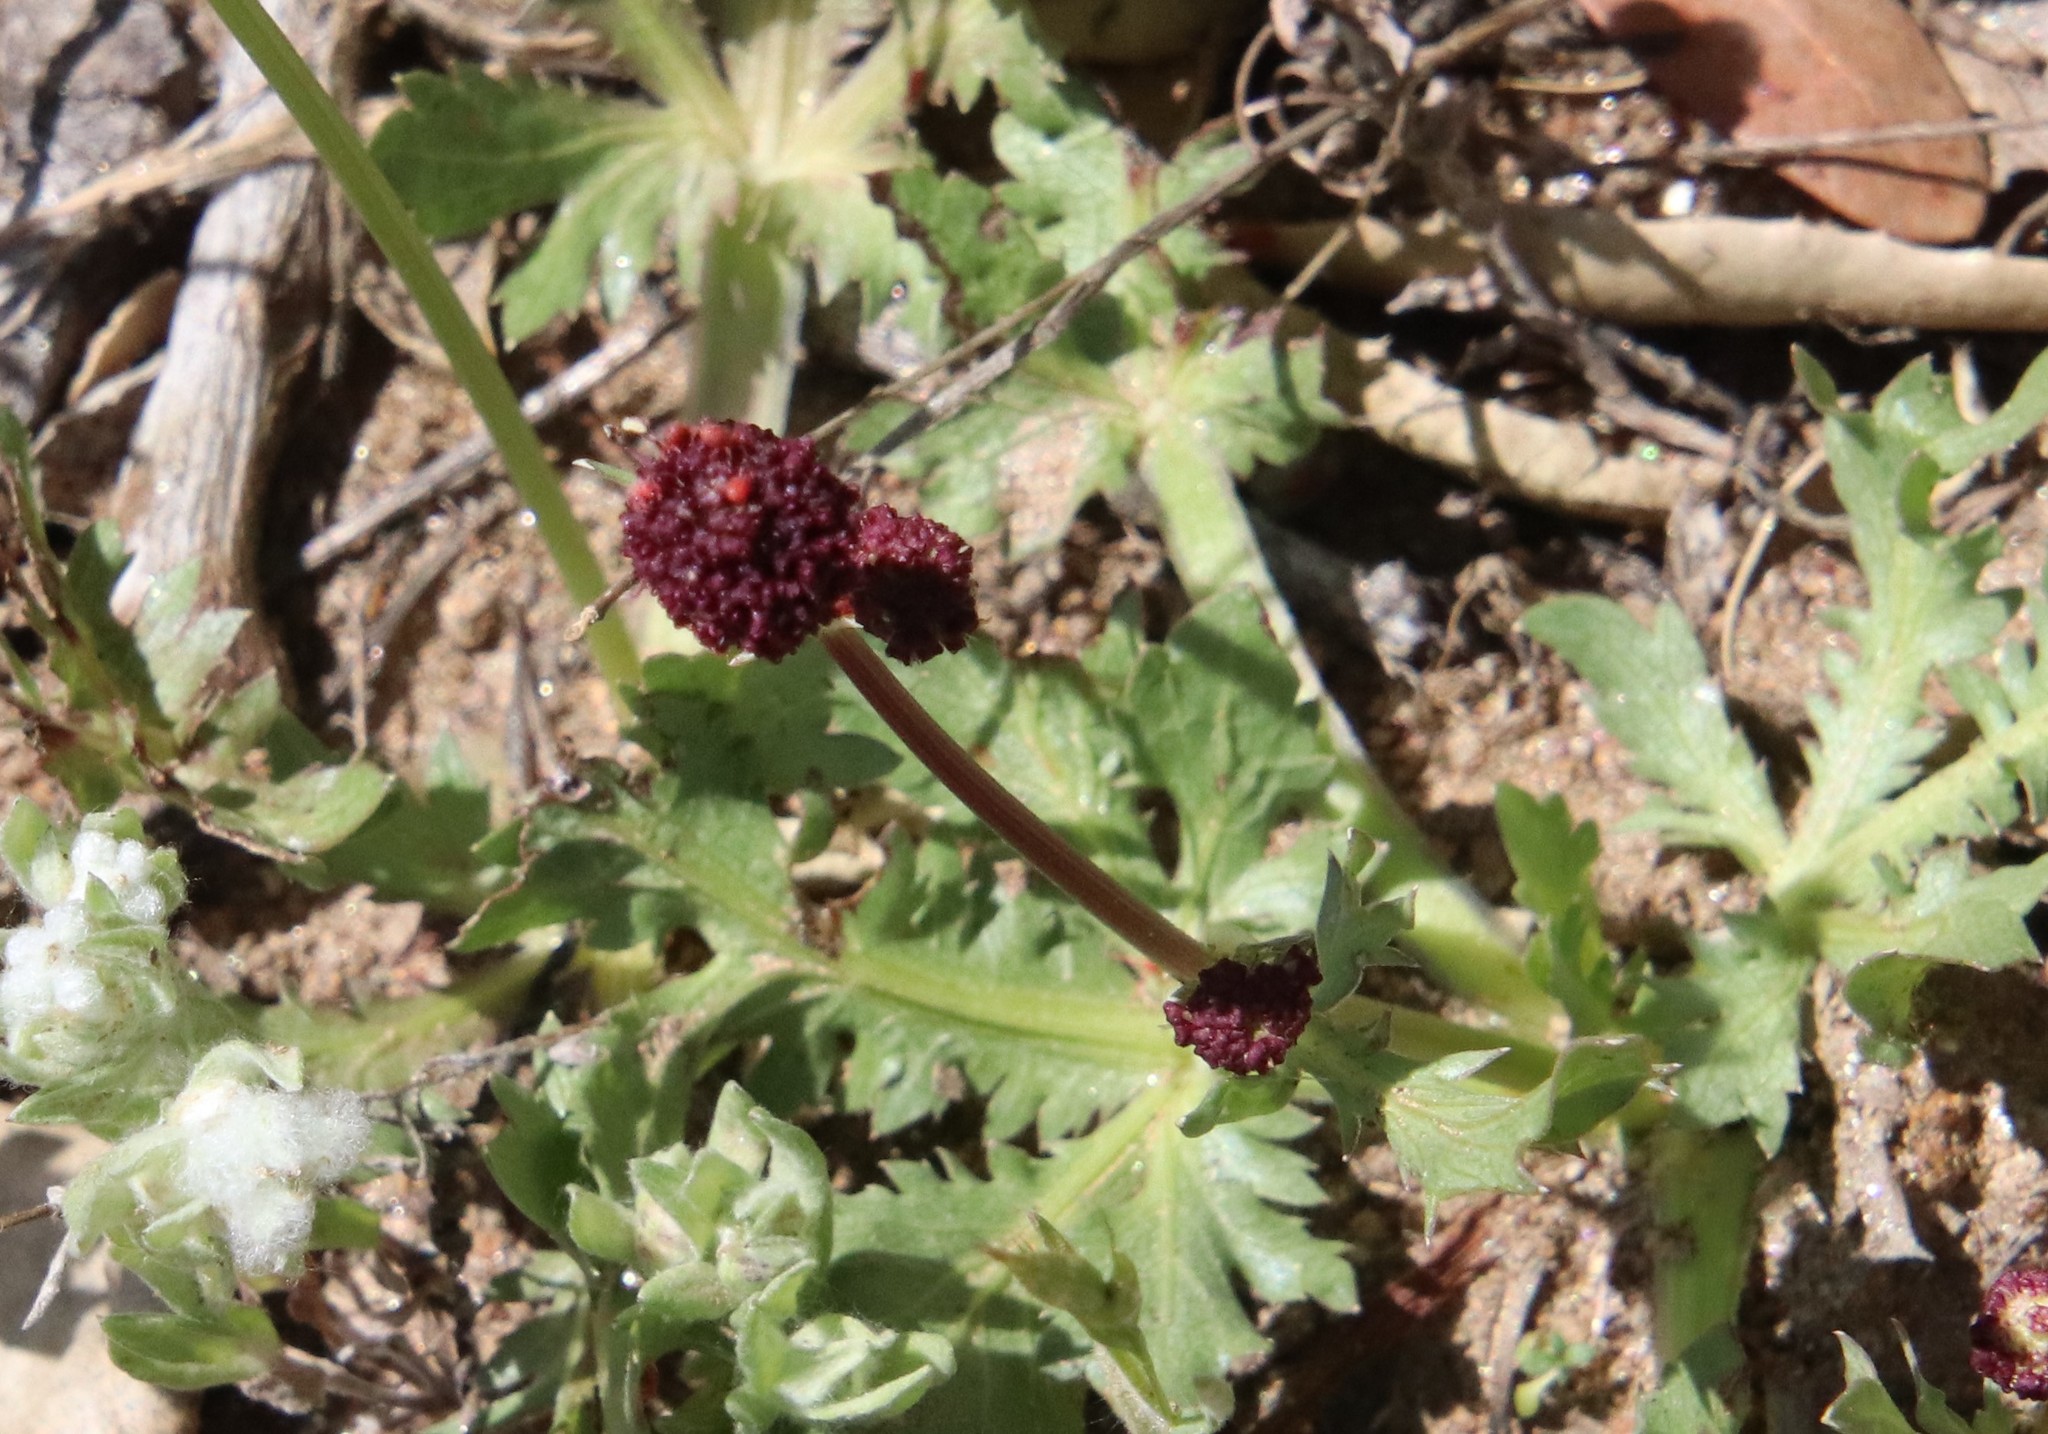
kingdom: Plantae
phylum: Tracheophyta
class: Magnoliopsida
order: Apiales
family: Apiaceae
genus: Sanicula
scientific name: Sanicula bipinnatifida
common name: Shoe-buttons
